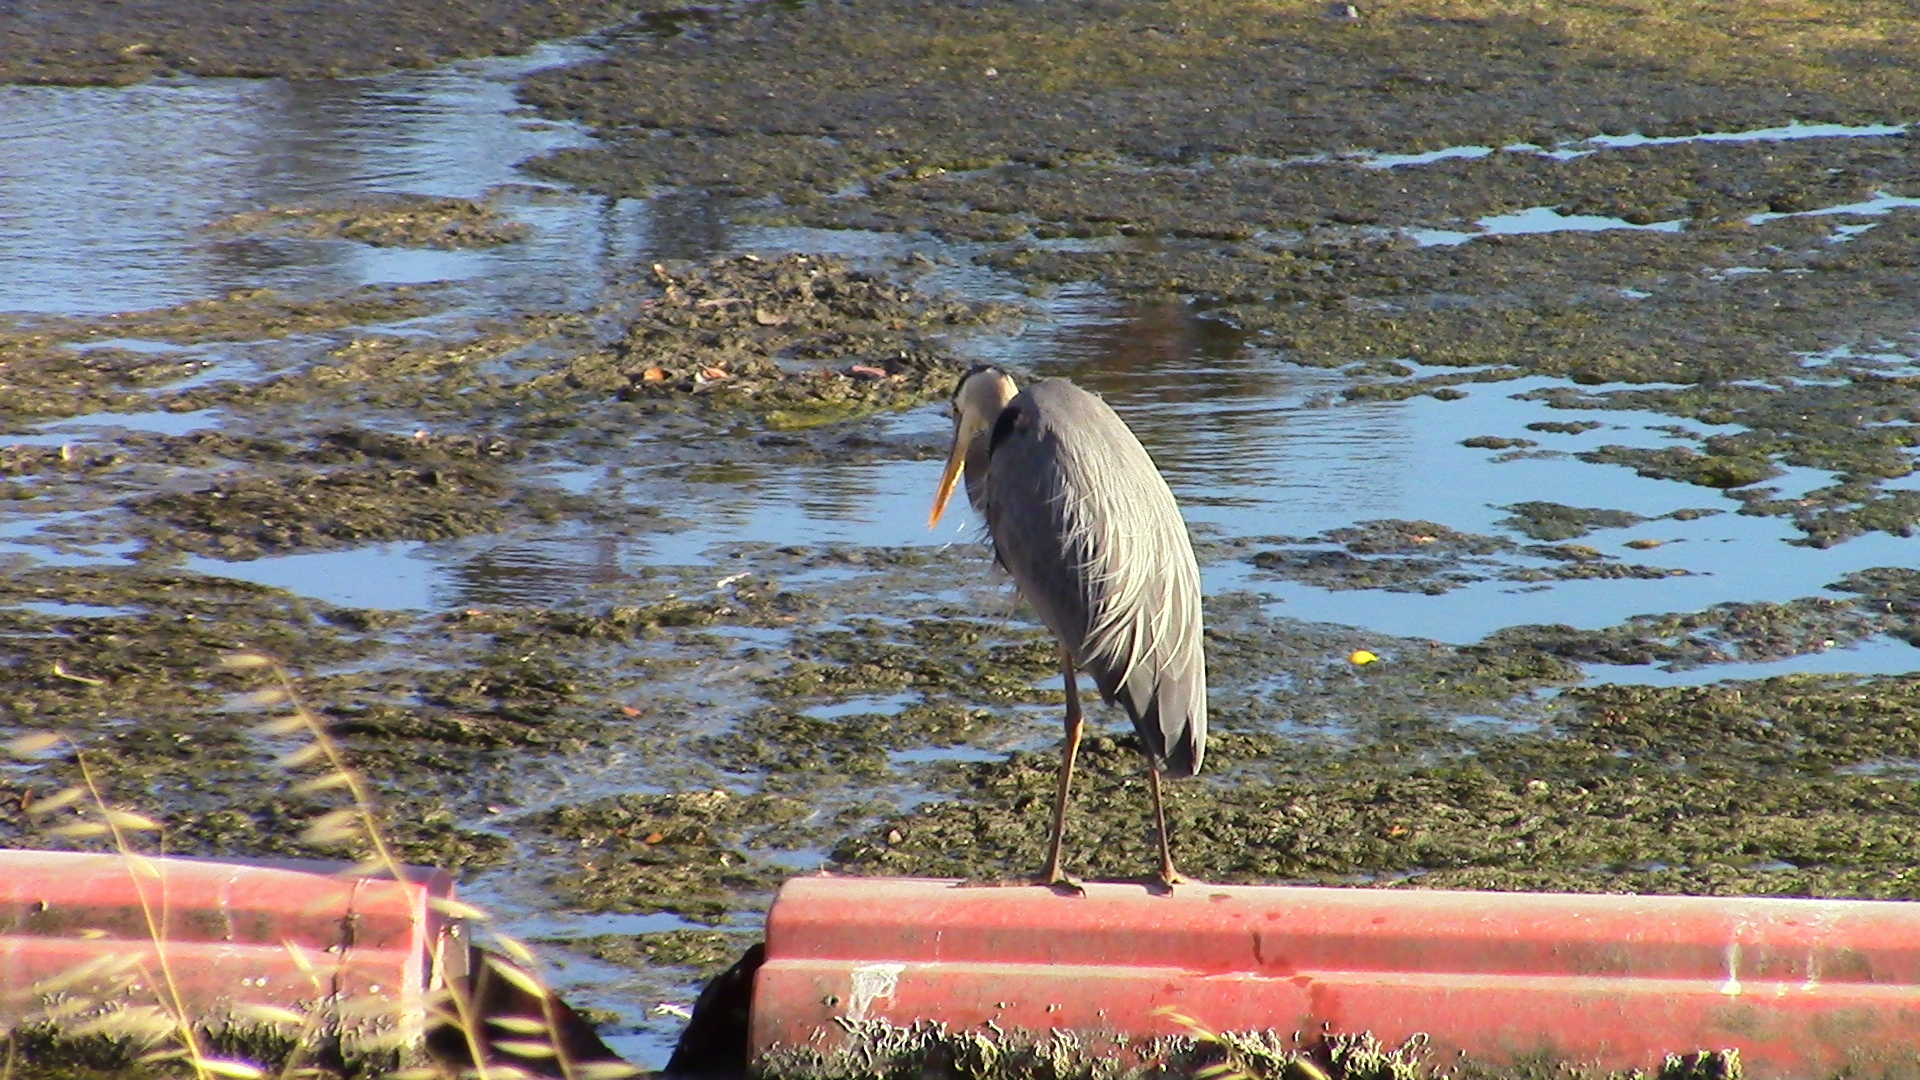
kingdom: Animalia
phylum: Chordata
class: Aves
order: Pelecaniformes
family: Ardeidae
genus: Ardea
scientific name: Ardea herodias
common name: Great blue heron
